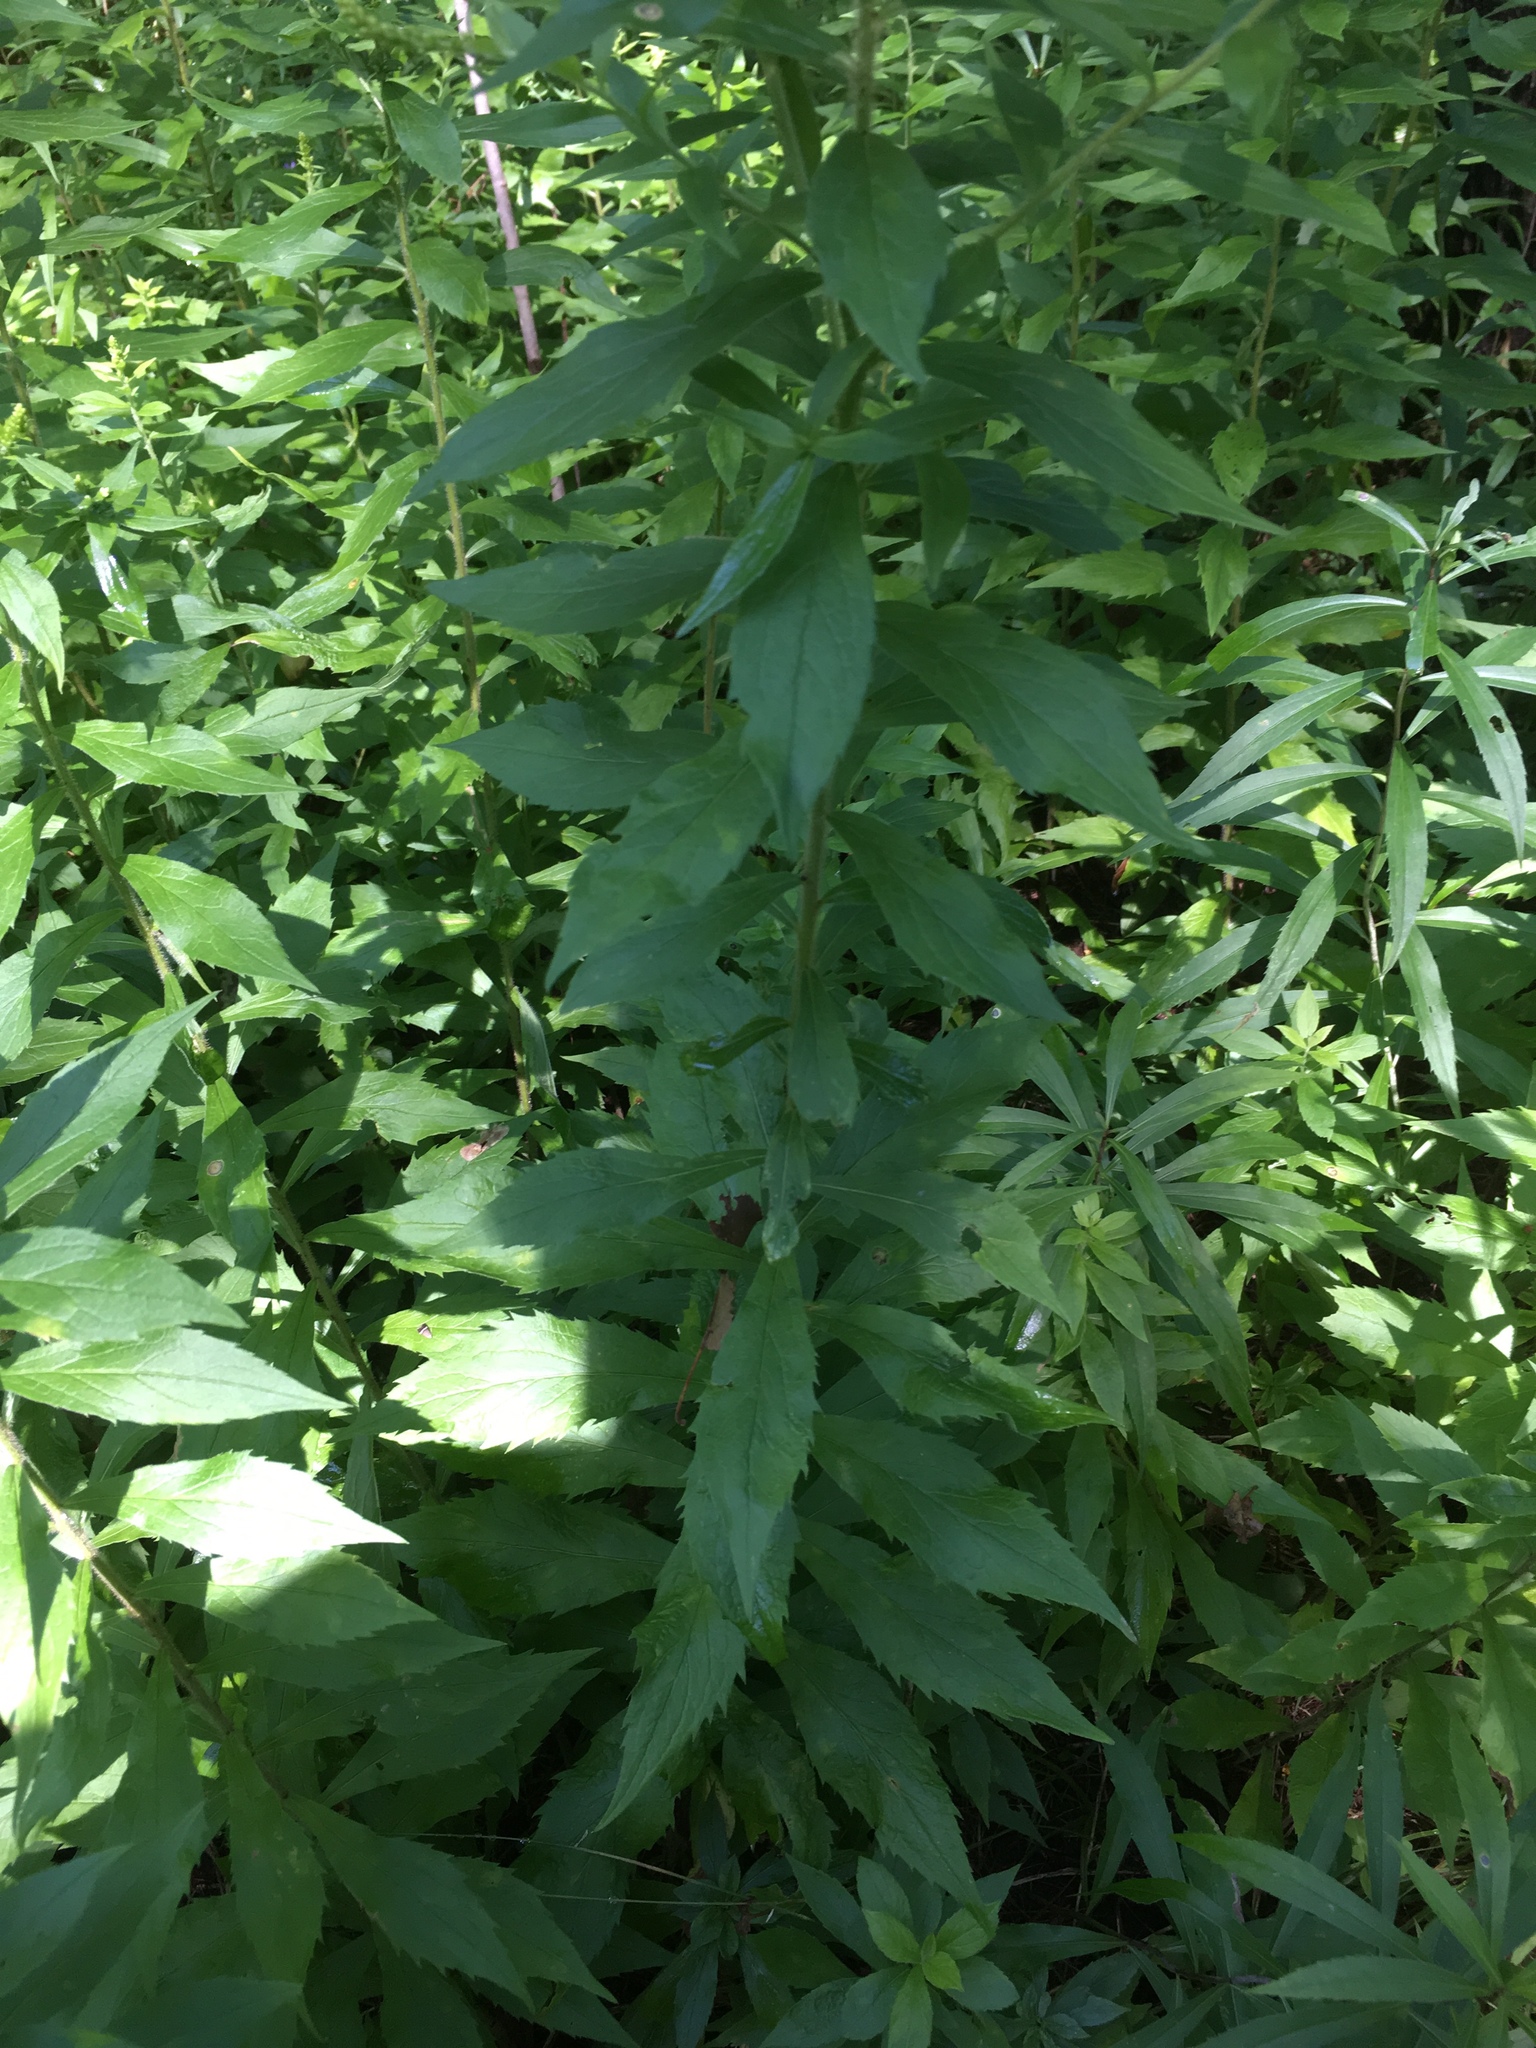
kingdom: Plantae
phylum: Tracheophyta
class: Magnoliopsida
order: Asterales
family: Asteraceae
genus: Solidago
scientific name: Solidago rugosa
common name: Rough-stemmed goldenrod
